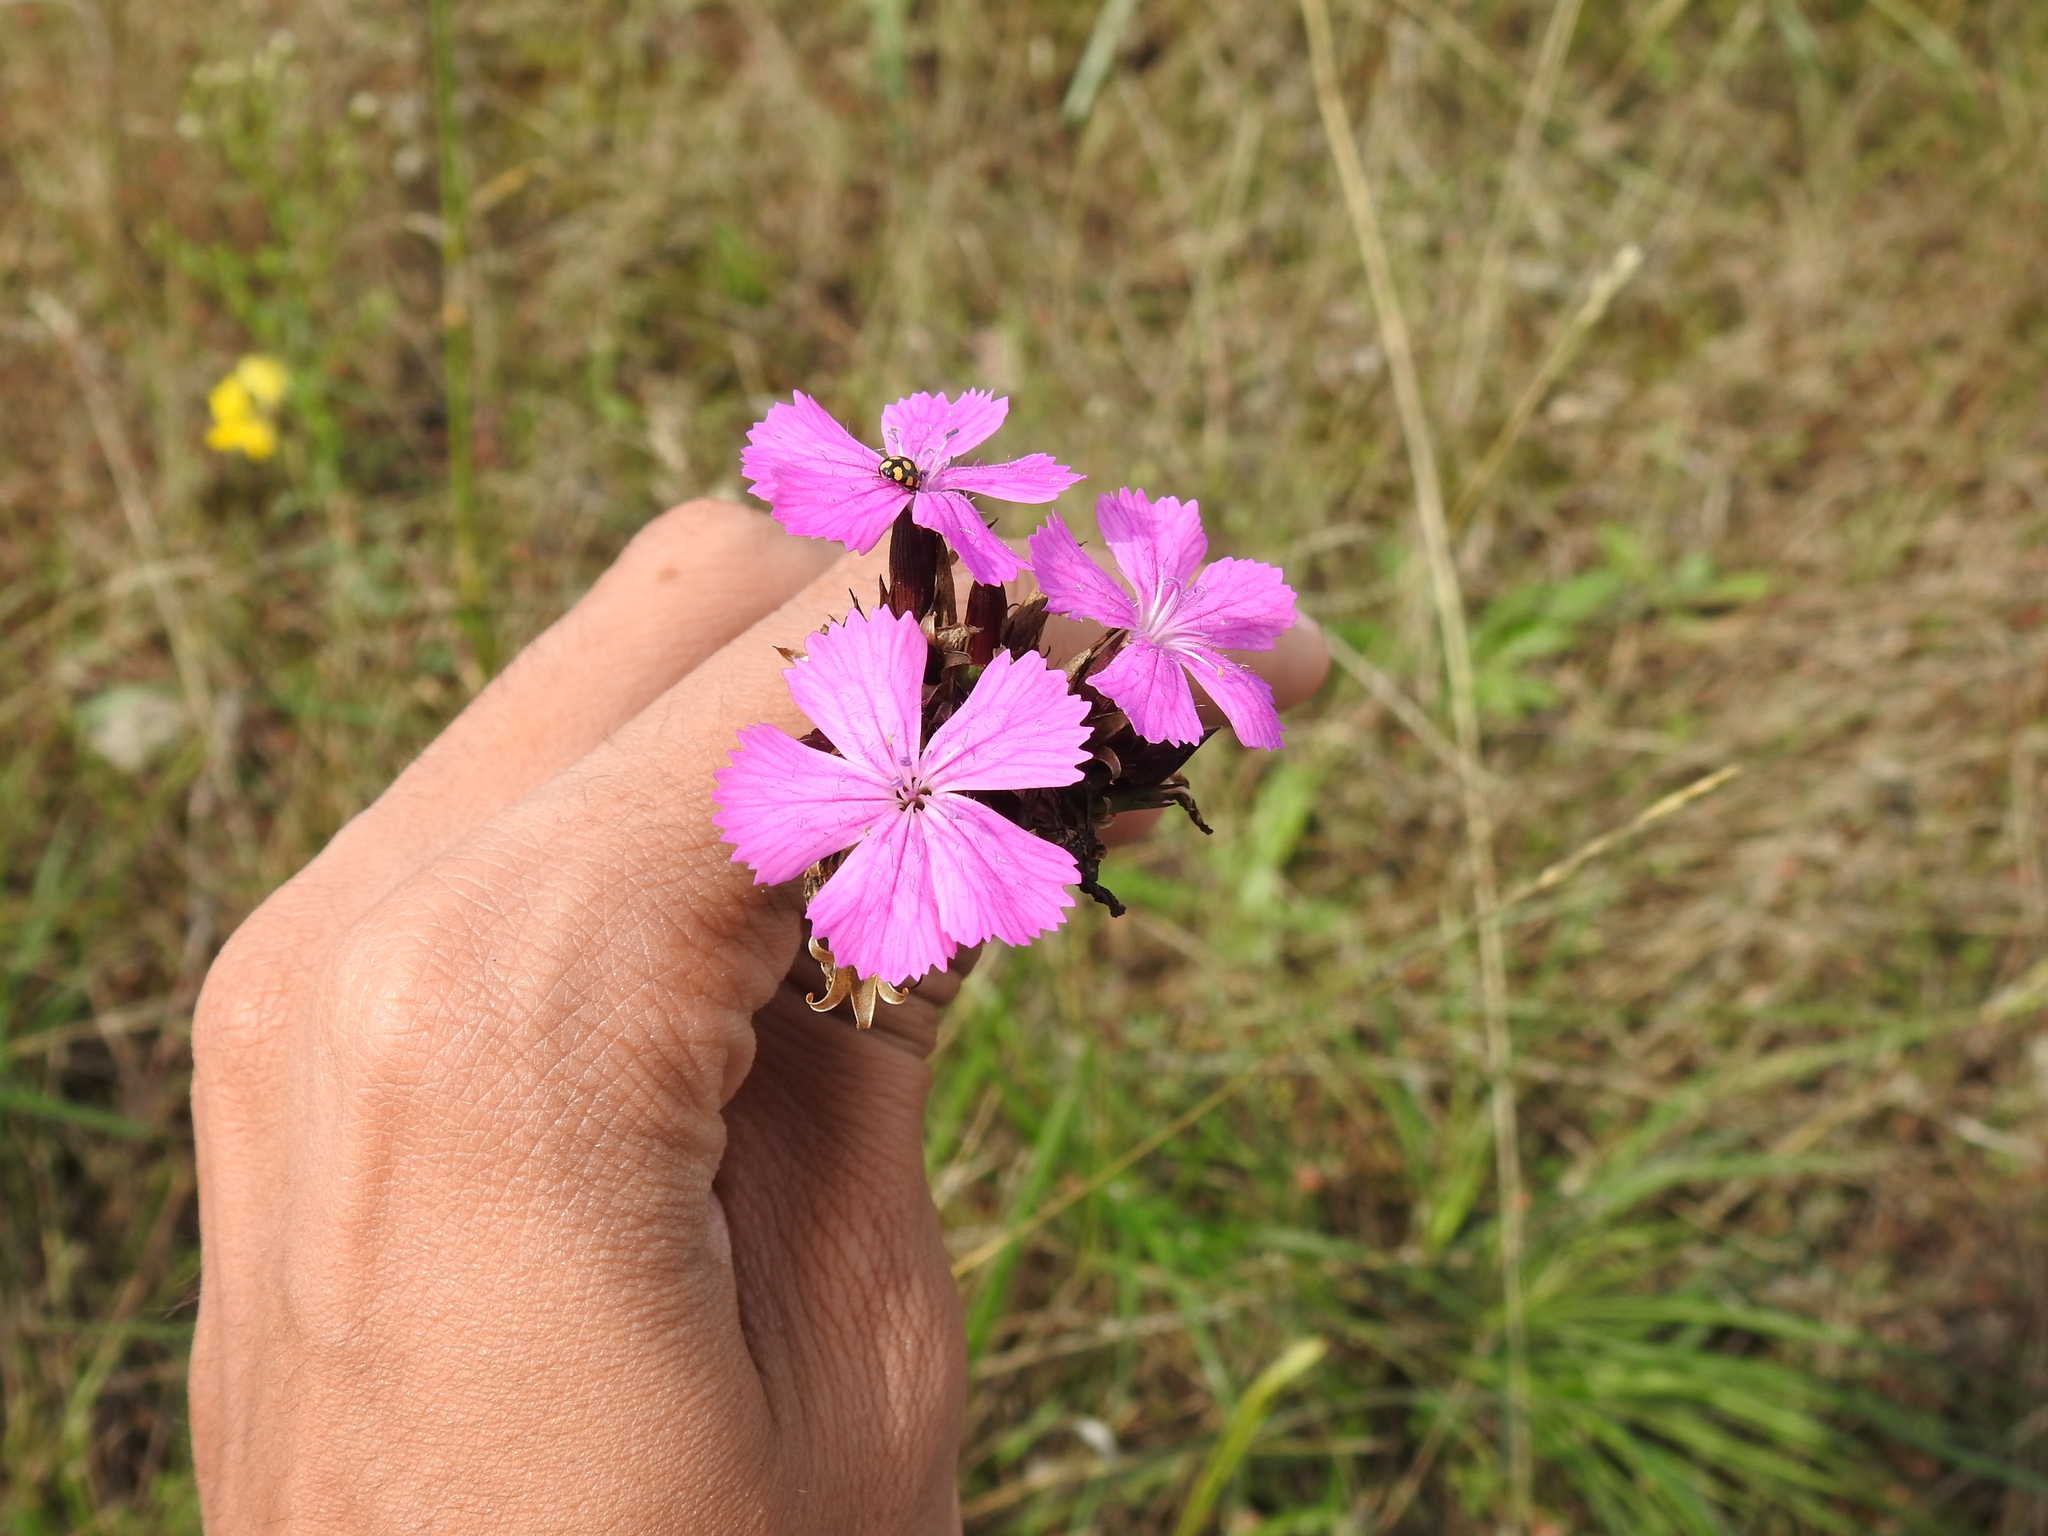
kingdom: Plantae
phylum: Tracheophyta
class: Magnoliopsida
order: Caryophyllales
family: Caryophyllaceae
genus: Dianthus
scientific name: Dianthus carthusianorum
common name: Carthusian pink
